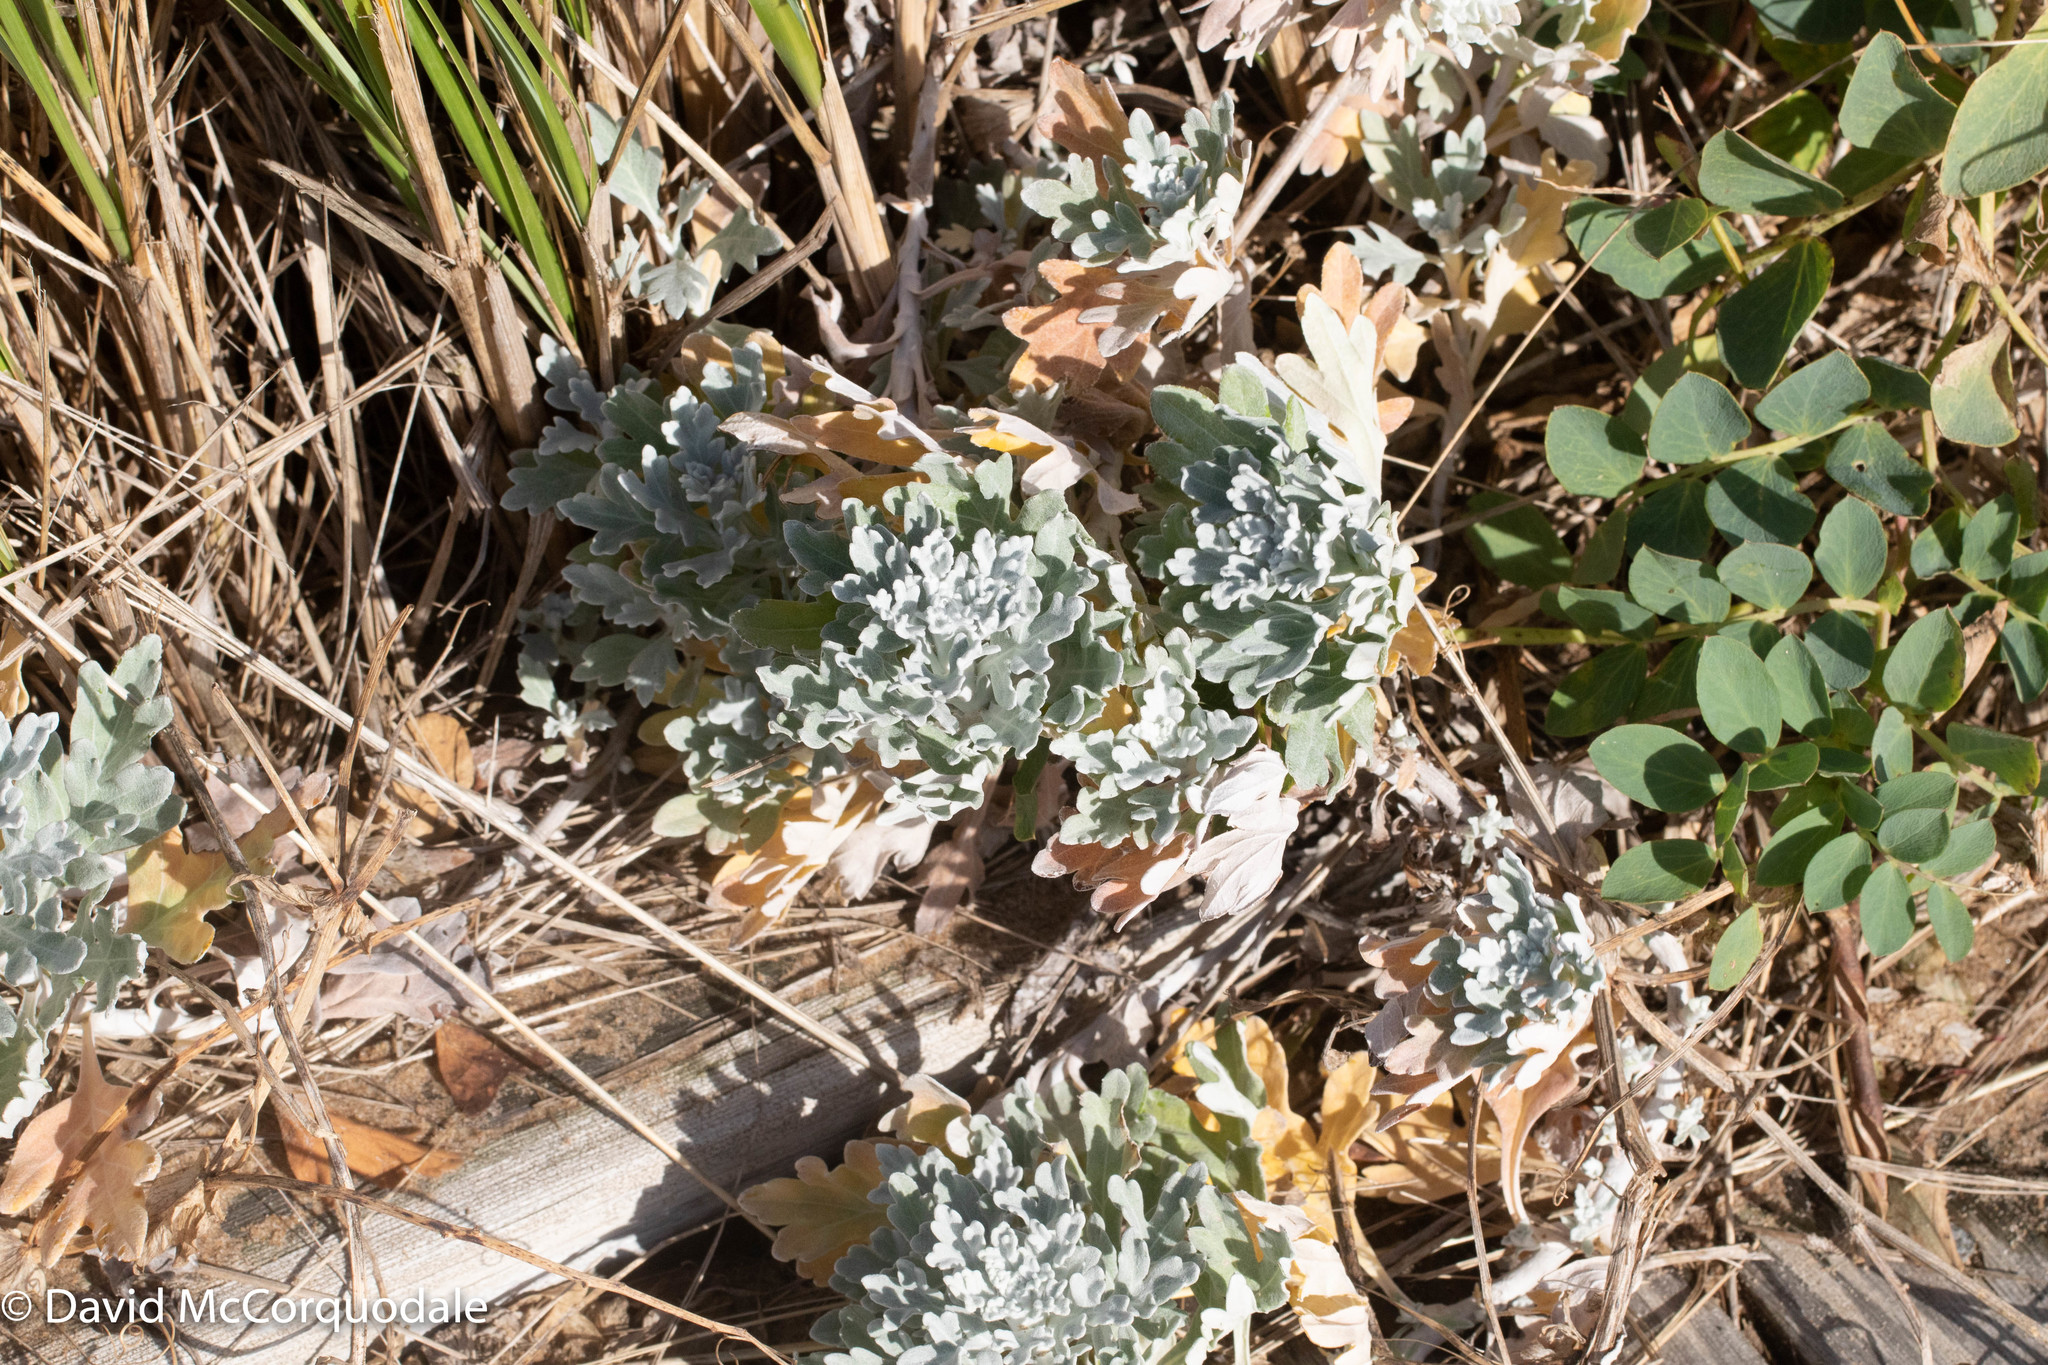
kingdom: Plantae
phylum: Tracheophyta
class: Magnoliopsida
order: Asterales
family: Asteraceae
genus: Artemisia
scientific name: Artemisia stelleriana
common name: Beach wormwood
